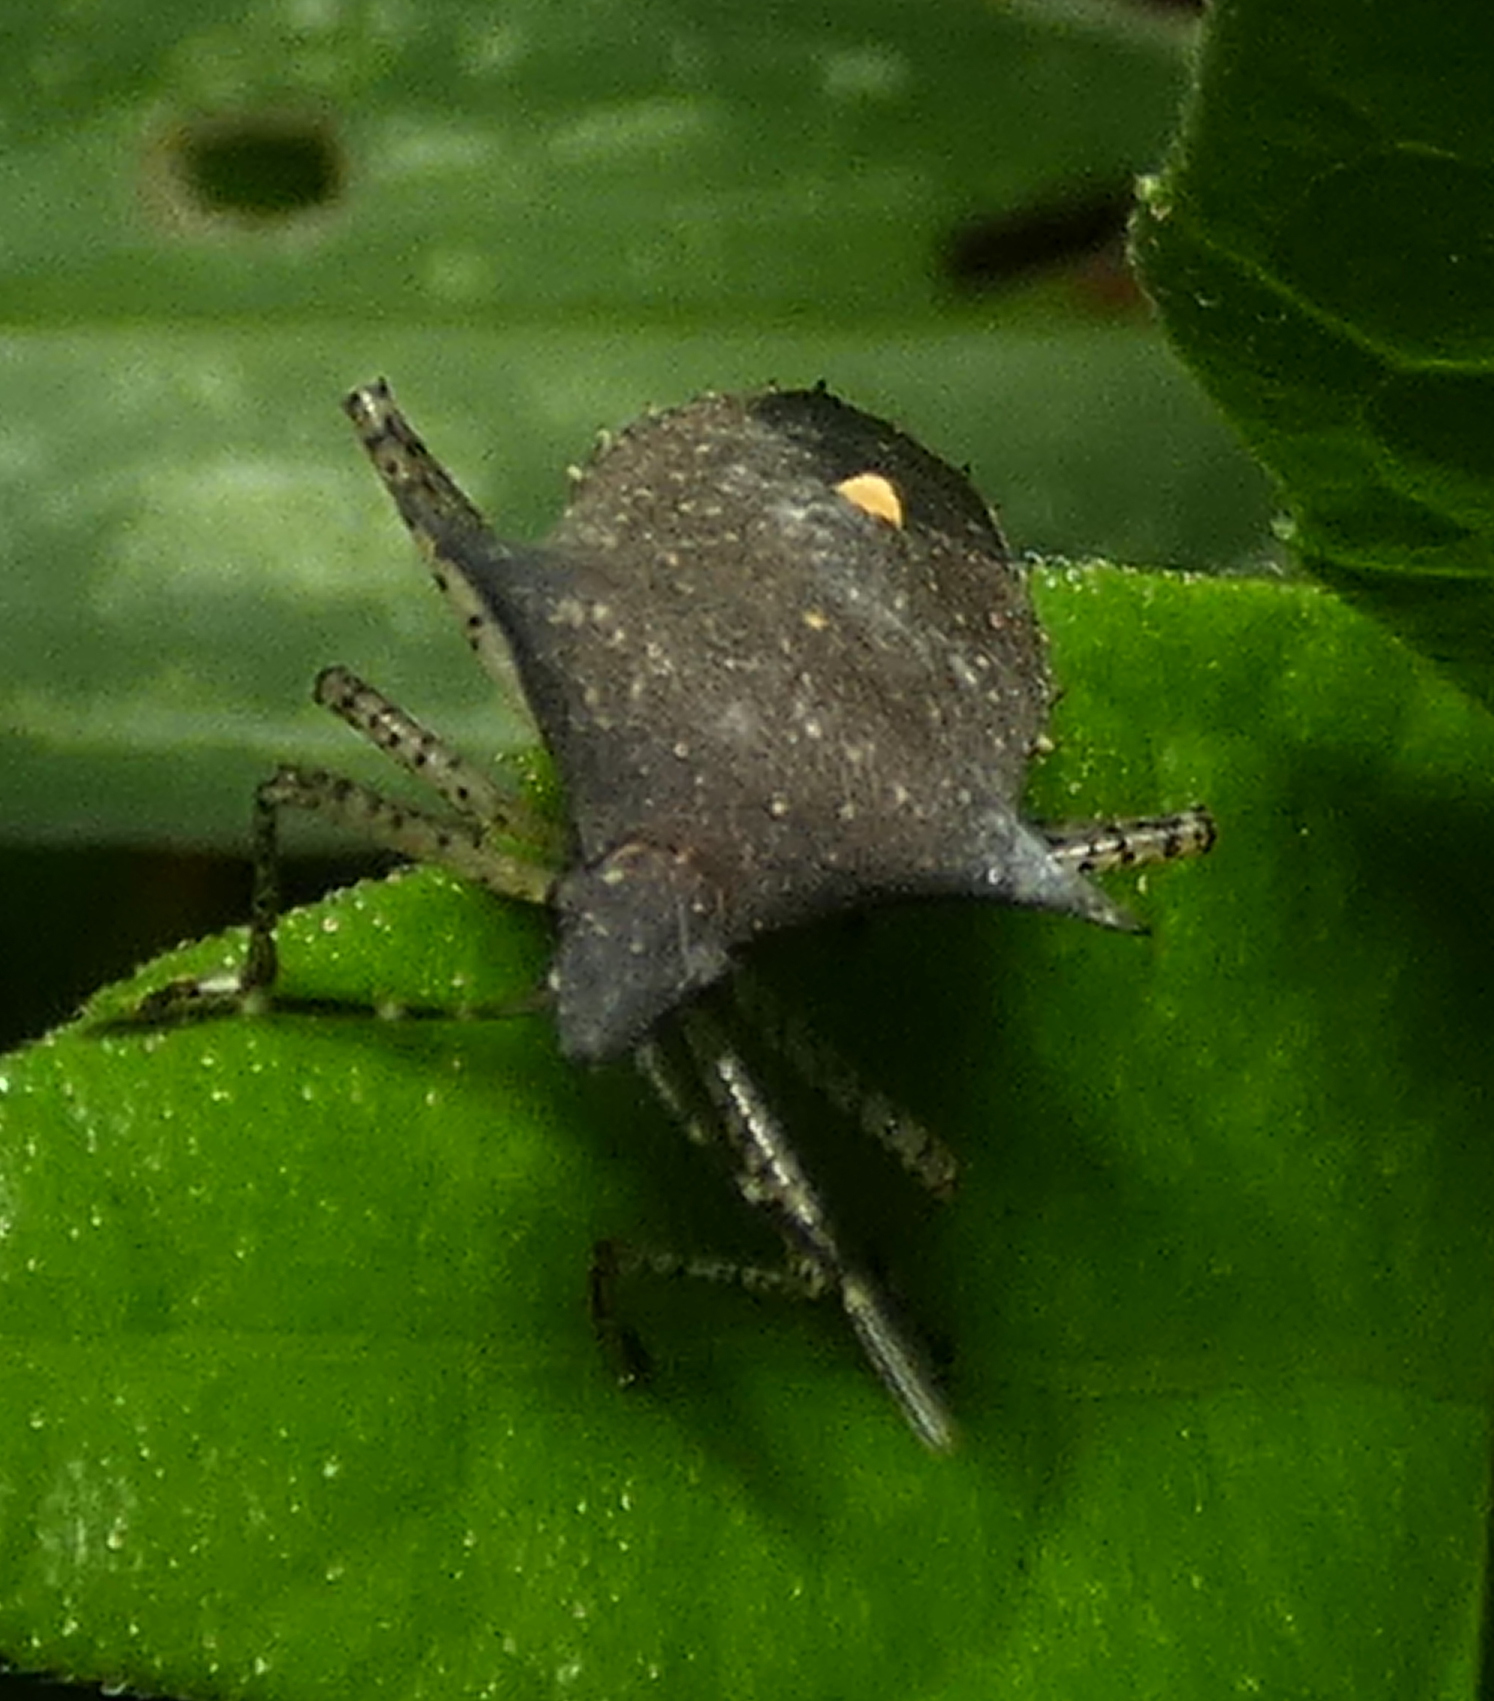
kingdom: Animalia
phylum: Arthropoda
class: Insecta
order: Hemiptera
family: Pentatomidae
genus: Proxys
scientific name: Proxys albopunctulatus
